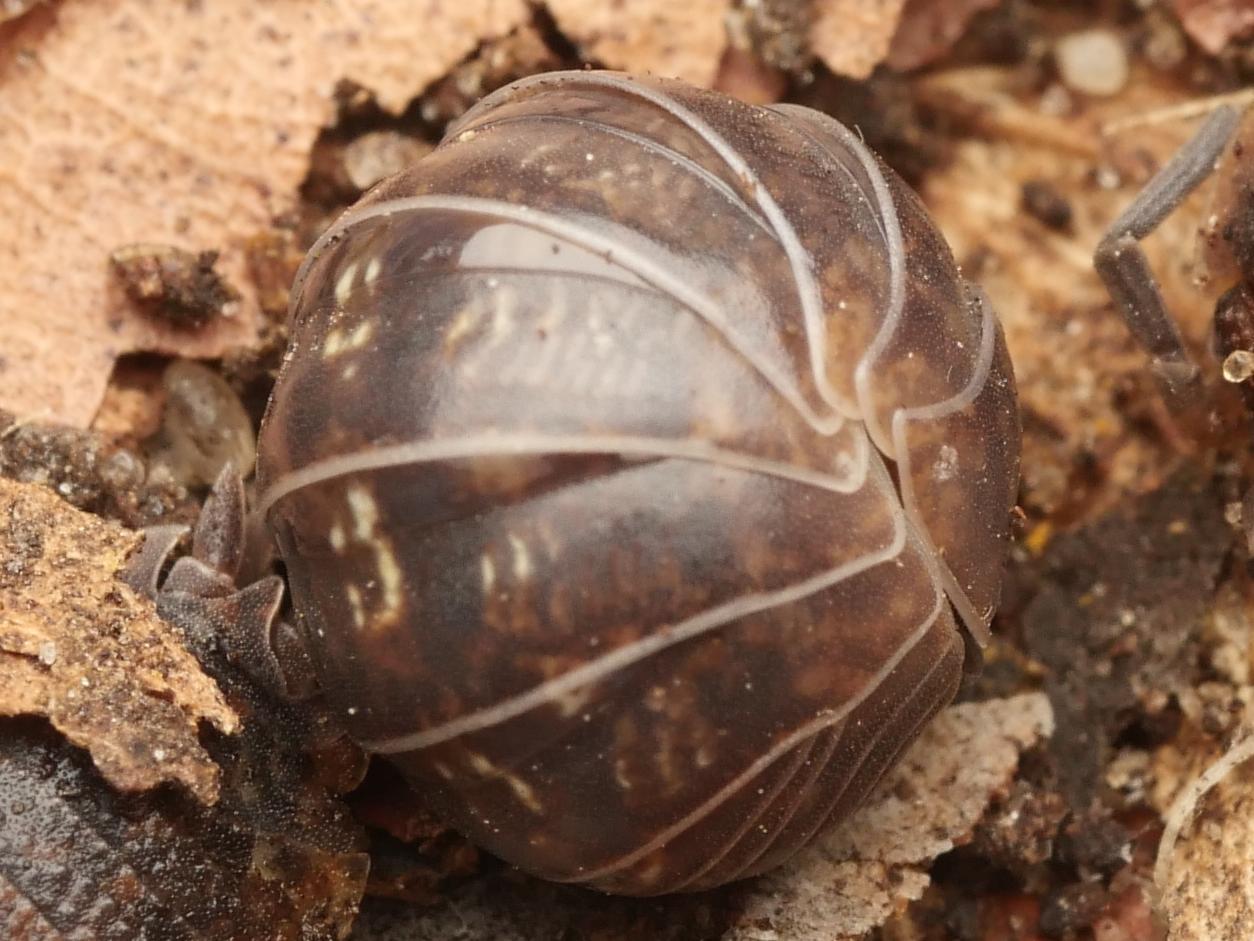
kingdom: Animalia
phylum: Arthropoda
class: Malacostraca
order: Isopoda
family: Armadillidiidae
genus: Armadillidium
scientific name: Armadillidium vulgare
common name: Common pill woodlouse
